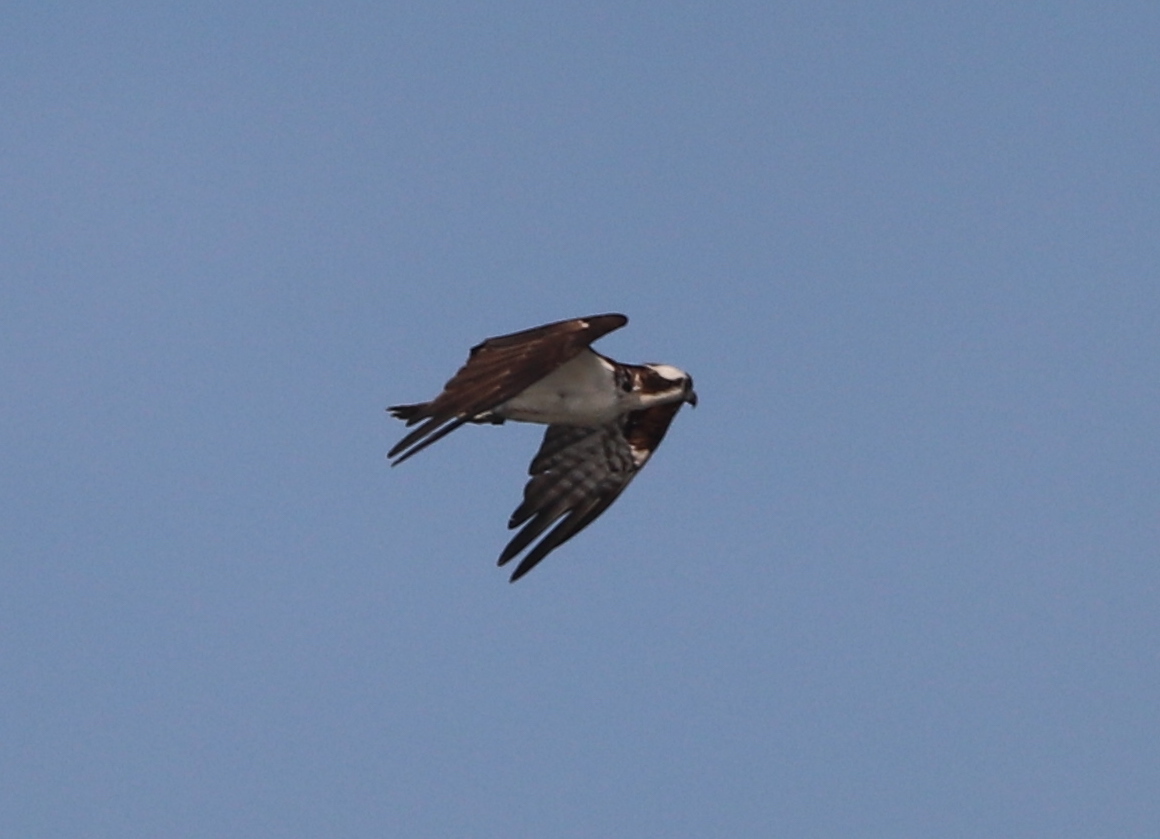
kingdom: Animalia
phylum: Chordata
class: Aves
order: Accipitriformes
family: Pandionidae
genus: Pandion
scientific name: Pandion haliaetus
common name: Osprey
